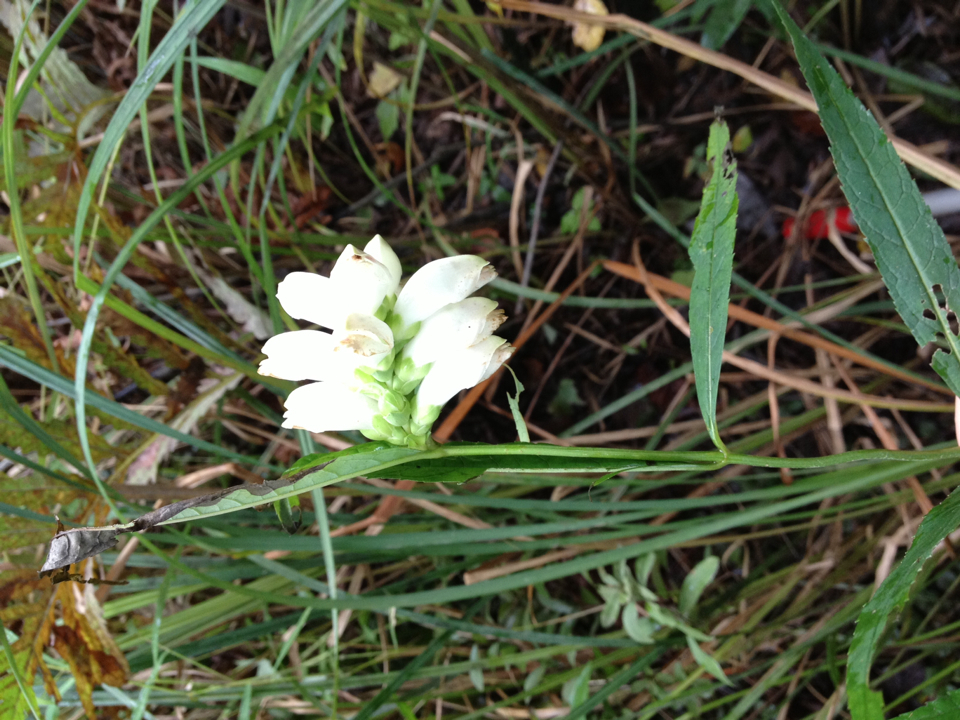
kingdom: Plantae
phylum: Tracheophyta
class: Magnoliopsida
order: Lamiales
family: Plantaginaceae
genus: Chelone
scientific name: Chelone glabra
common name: Snakehead
